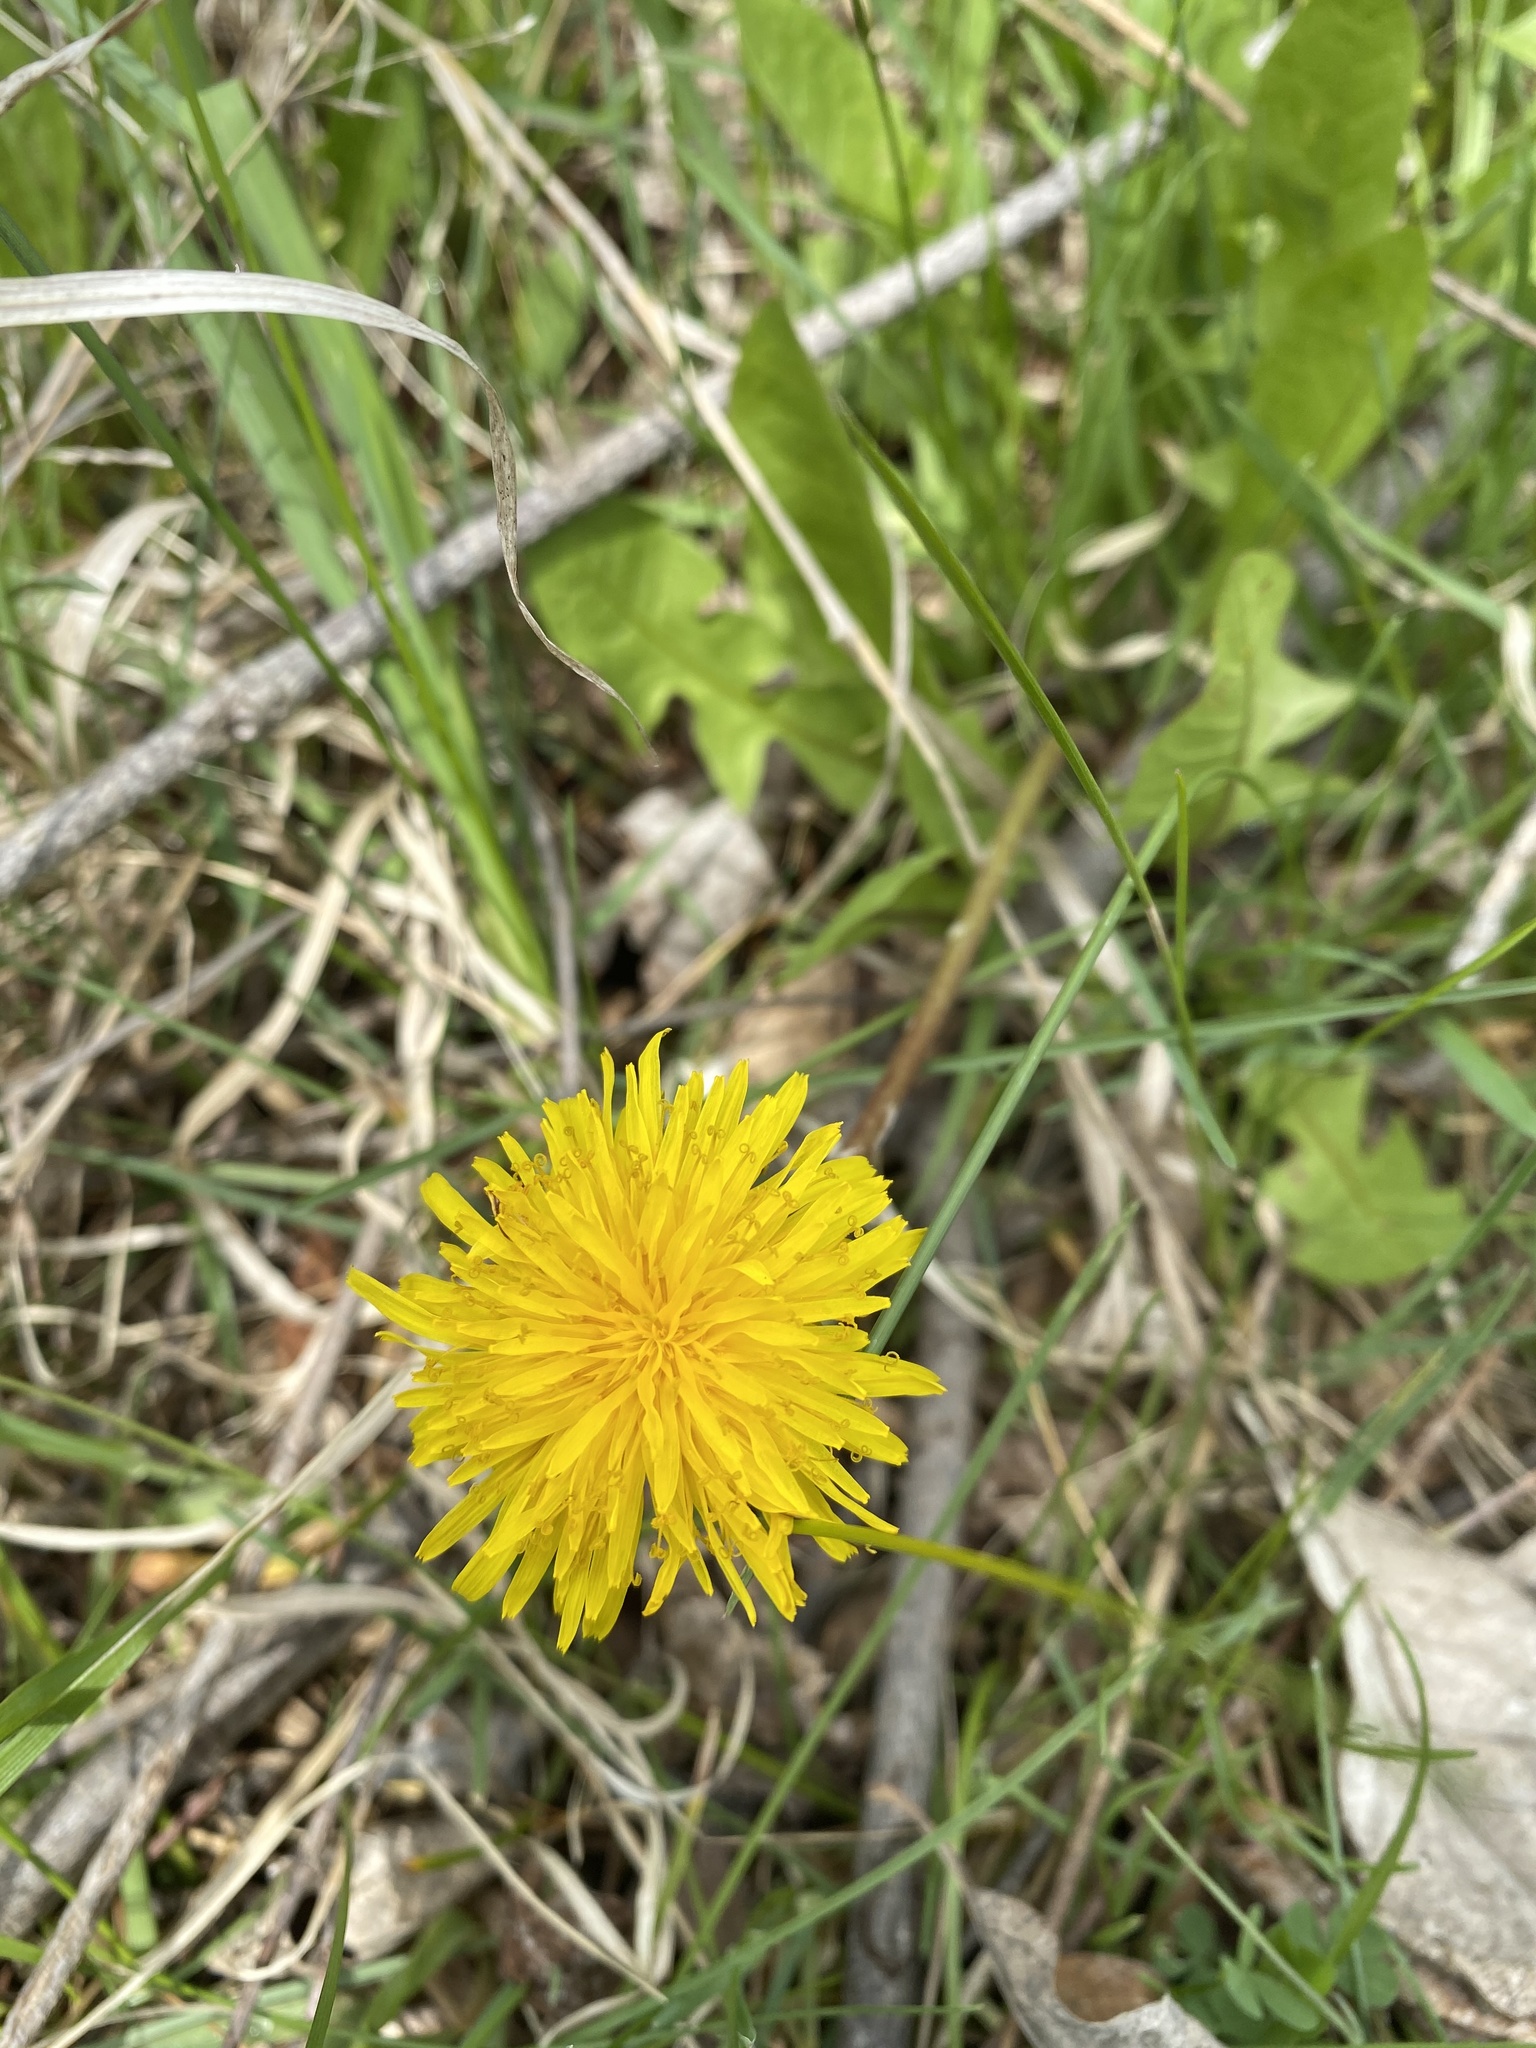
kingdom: Plantae
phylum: Tracheophyta
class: Magnoliopsida
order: Asterales
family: Asteraceae
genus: Taraxacum
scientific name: Taraxacum officinale
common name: Common dandelion
